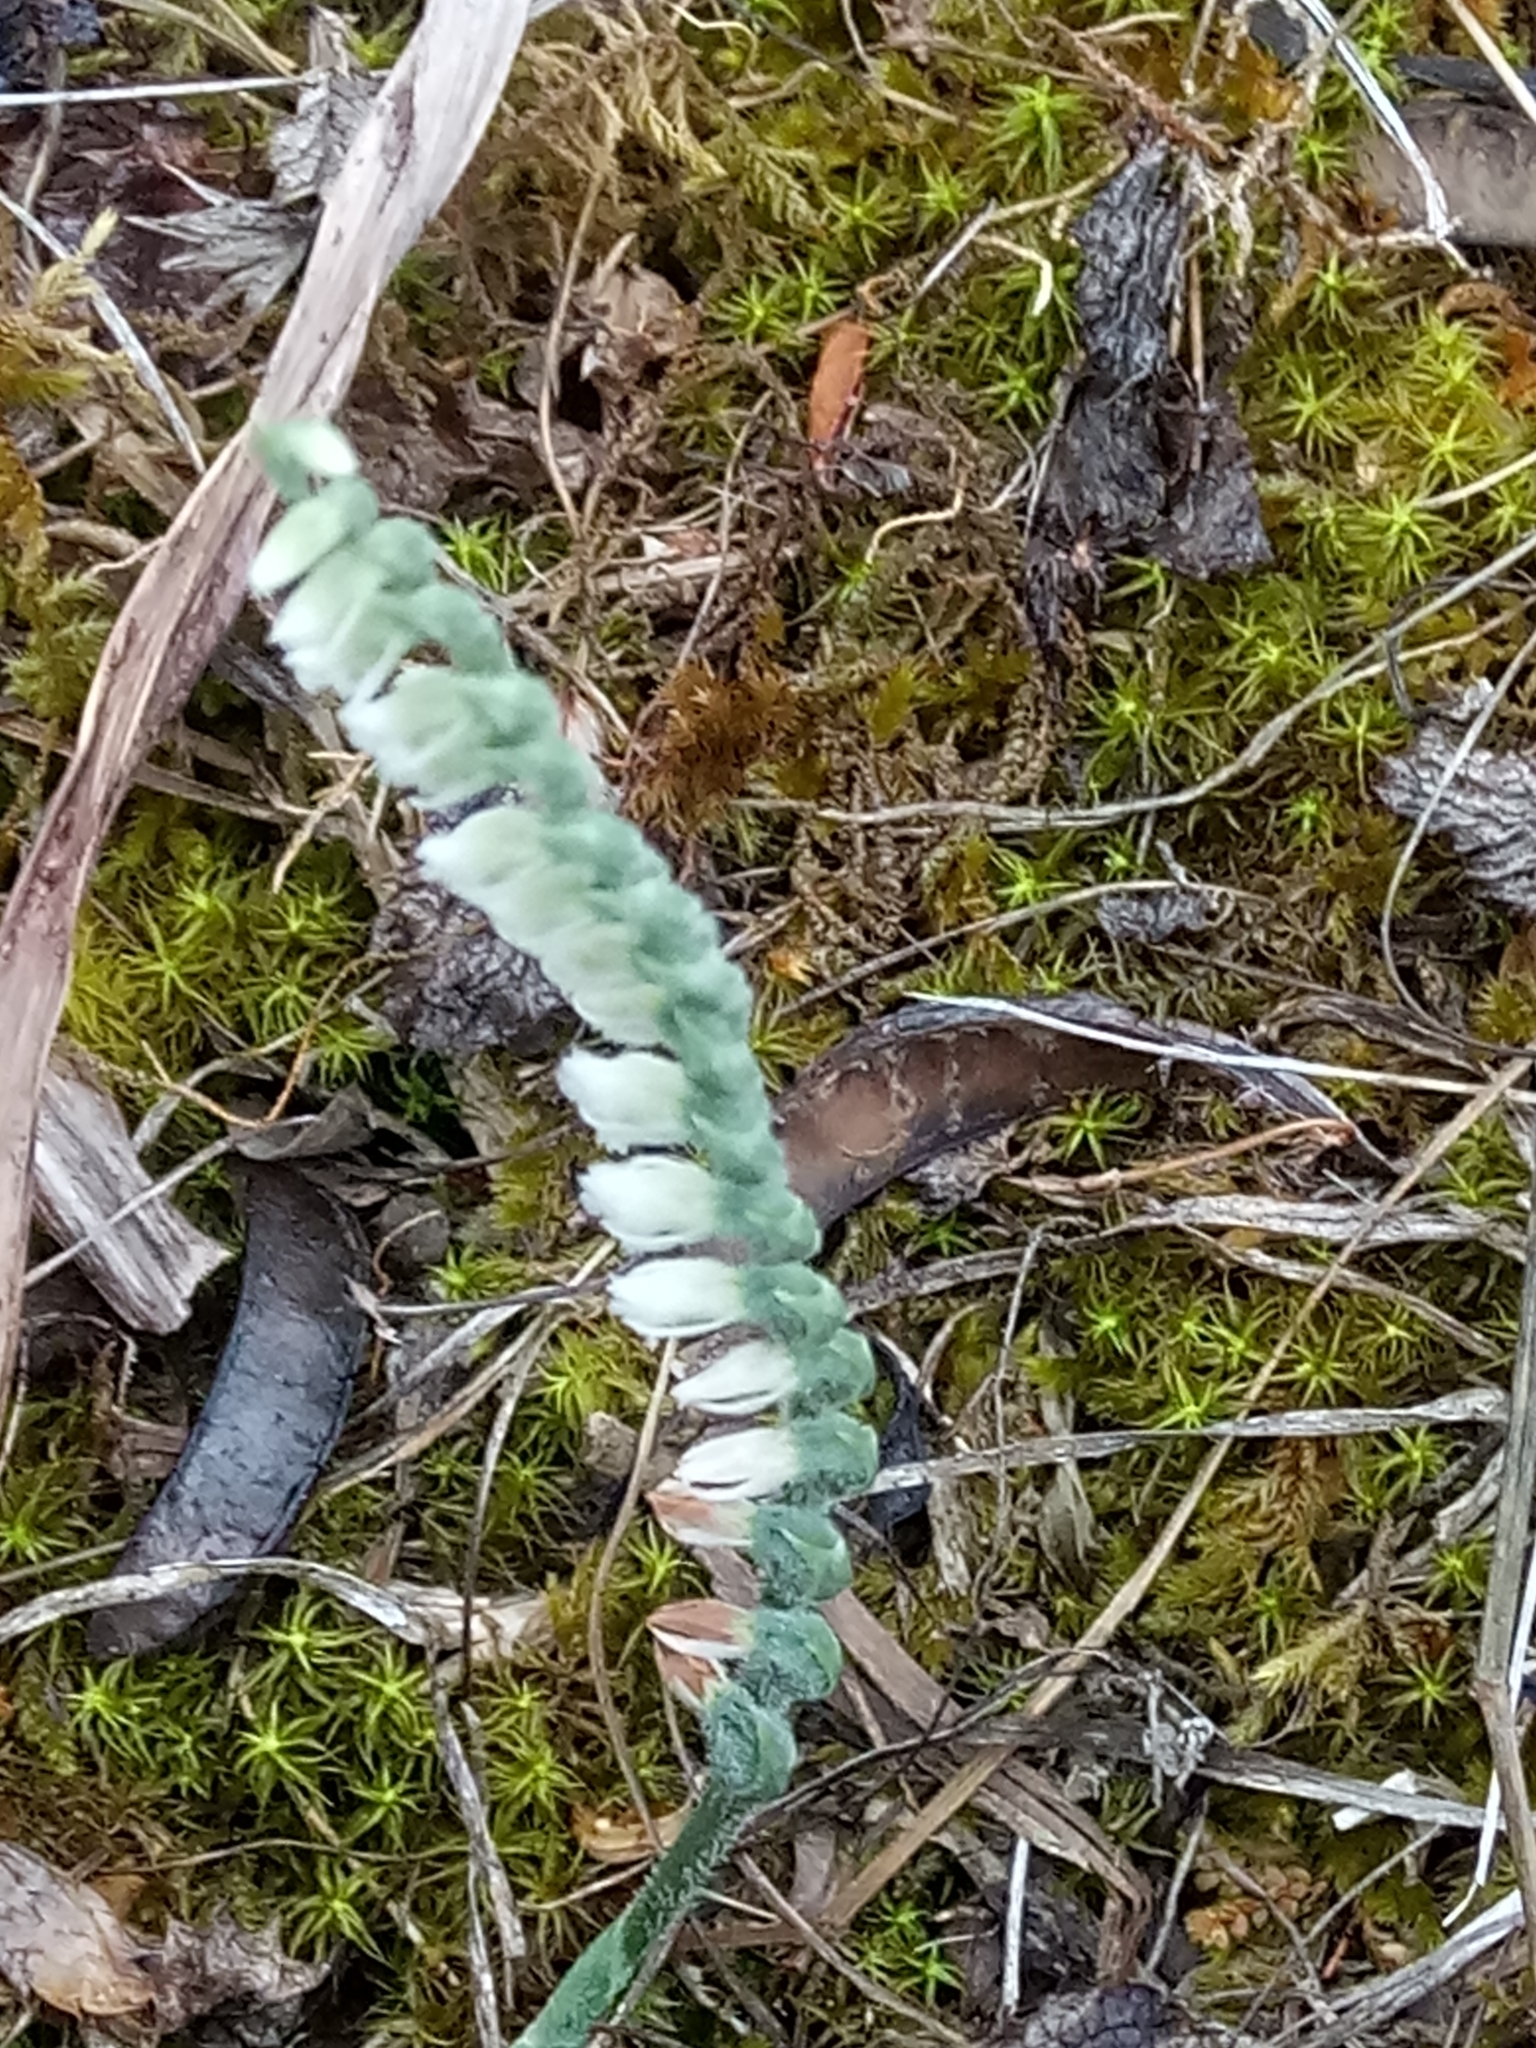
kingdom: Plantae
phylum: Tracheophyta
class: Liliopsida
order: Asparagales
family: Orchidaceae
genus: Spiranthes
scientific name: Spiranthes spiralis
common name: Autumn lady's-tresses
